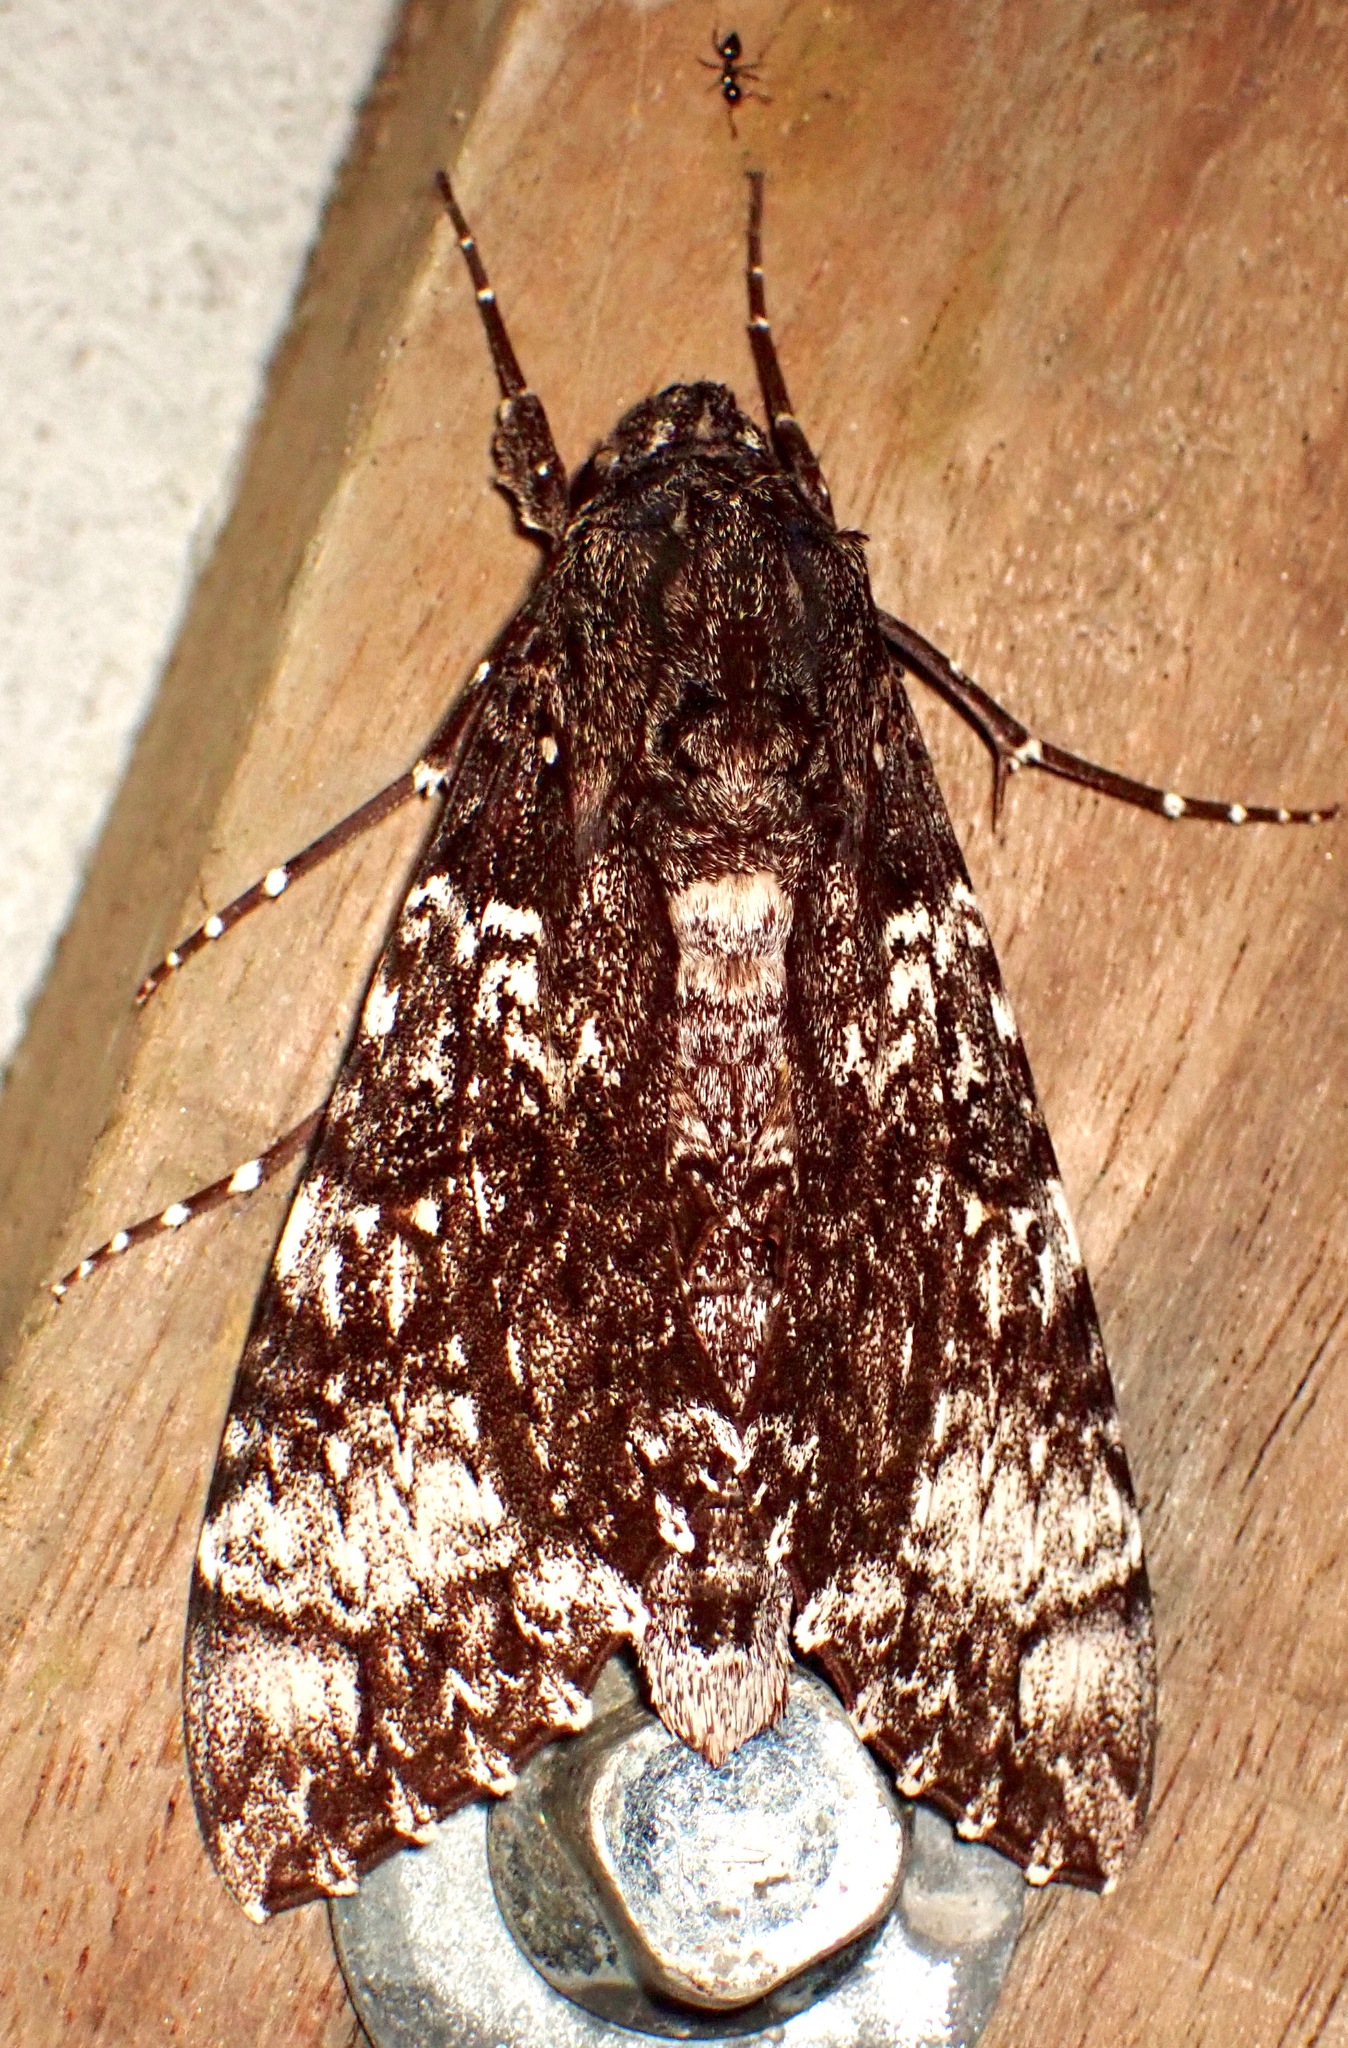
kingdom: Animalia
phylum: Arthropoda
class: Insecta
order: Lepidoptera
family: Sphingidae
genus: Isognathus
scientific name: Isognathus excelsior
